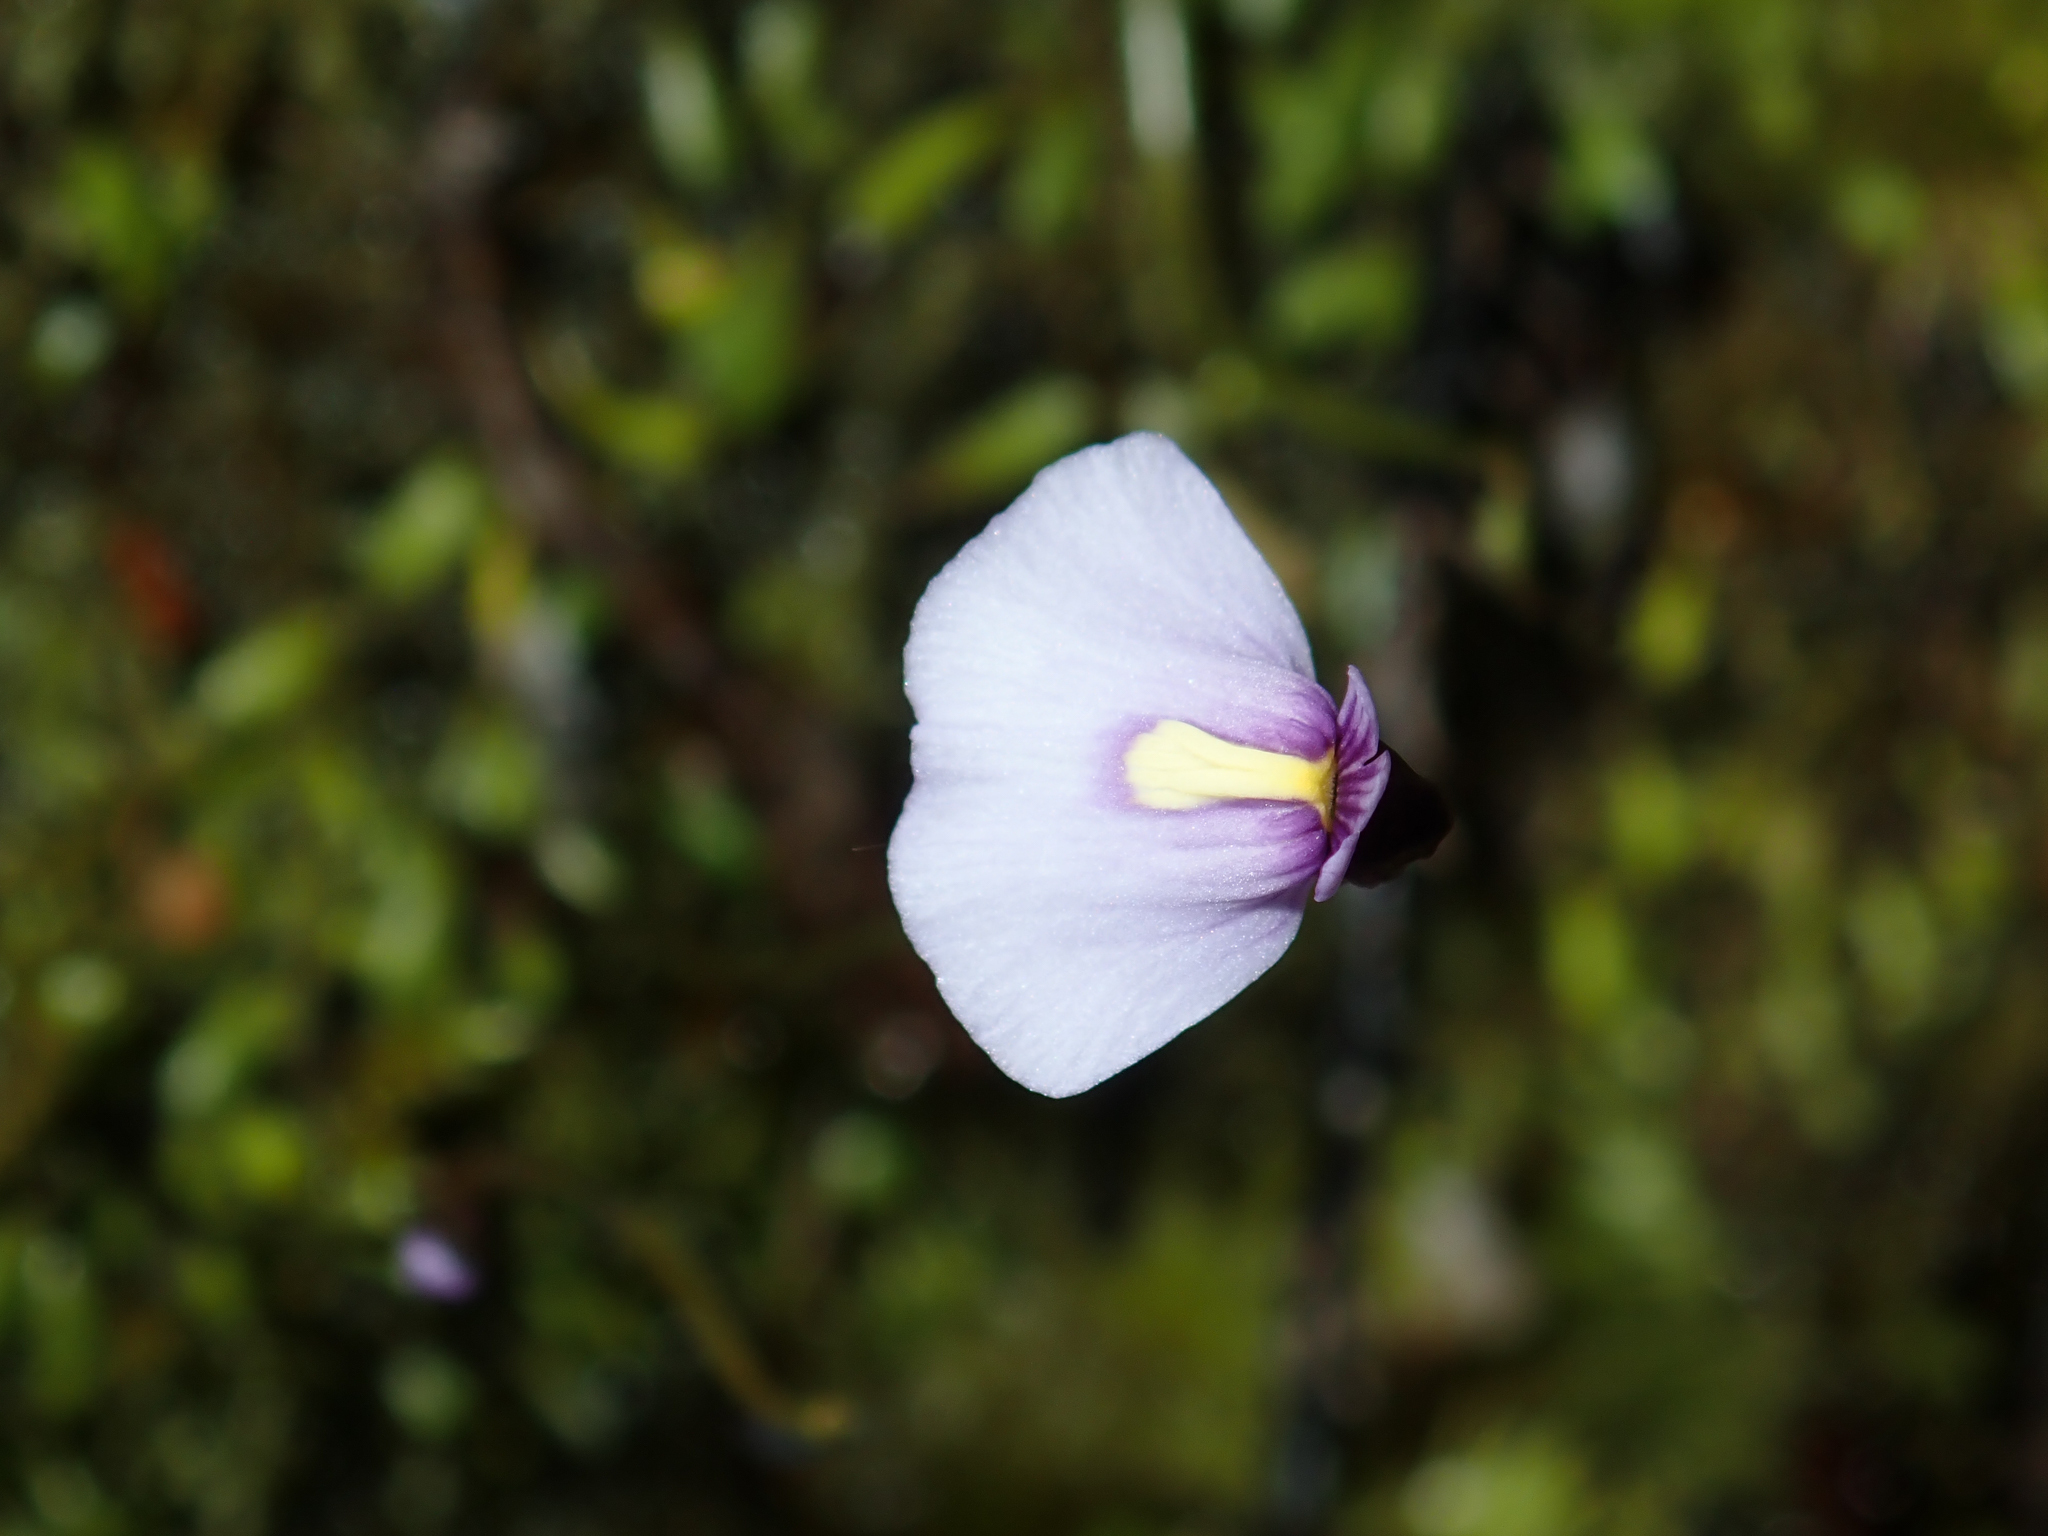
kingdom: Plantae
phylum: Tracheophyta
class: Magnoliopsida
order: Lamiales
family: Lentibulariaceae
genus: Utricularia
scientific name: Utricularia dichotoma
